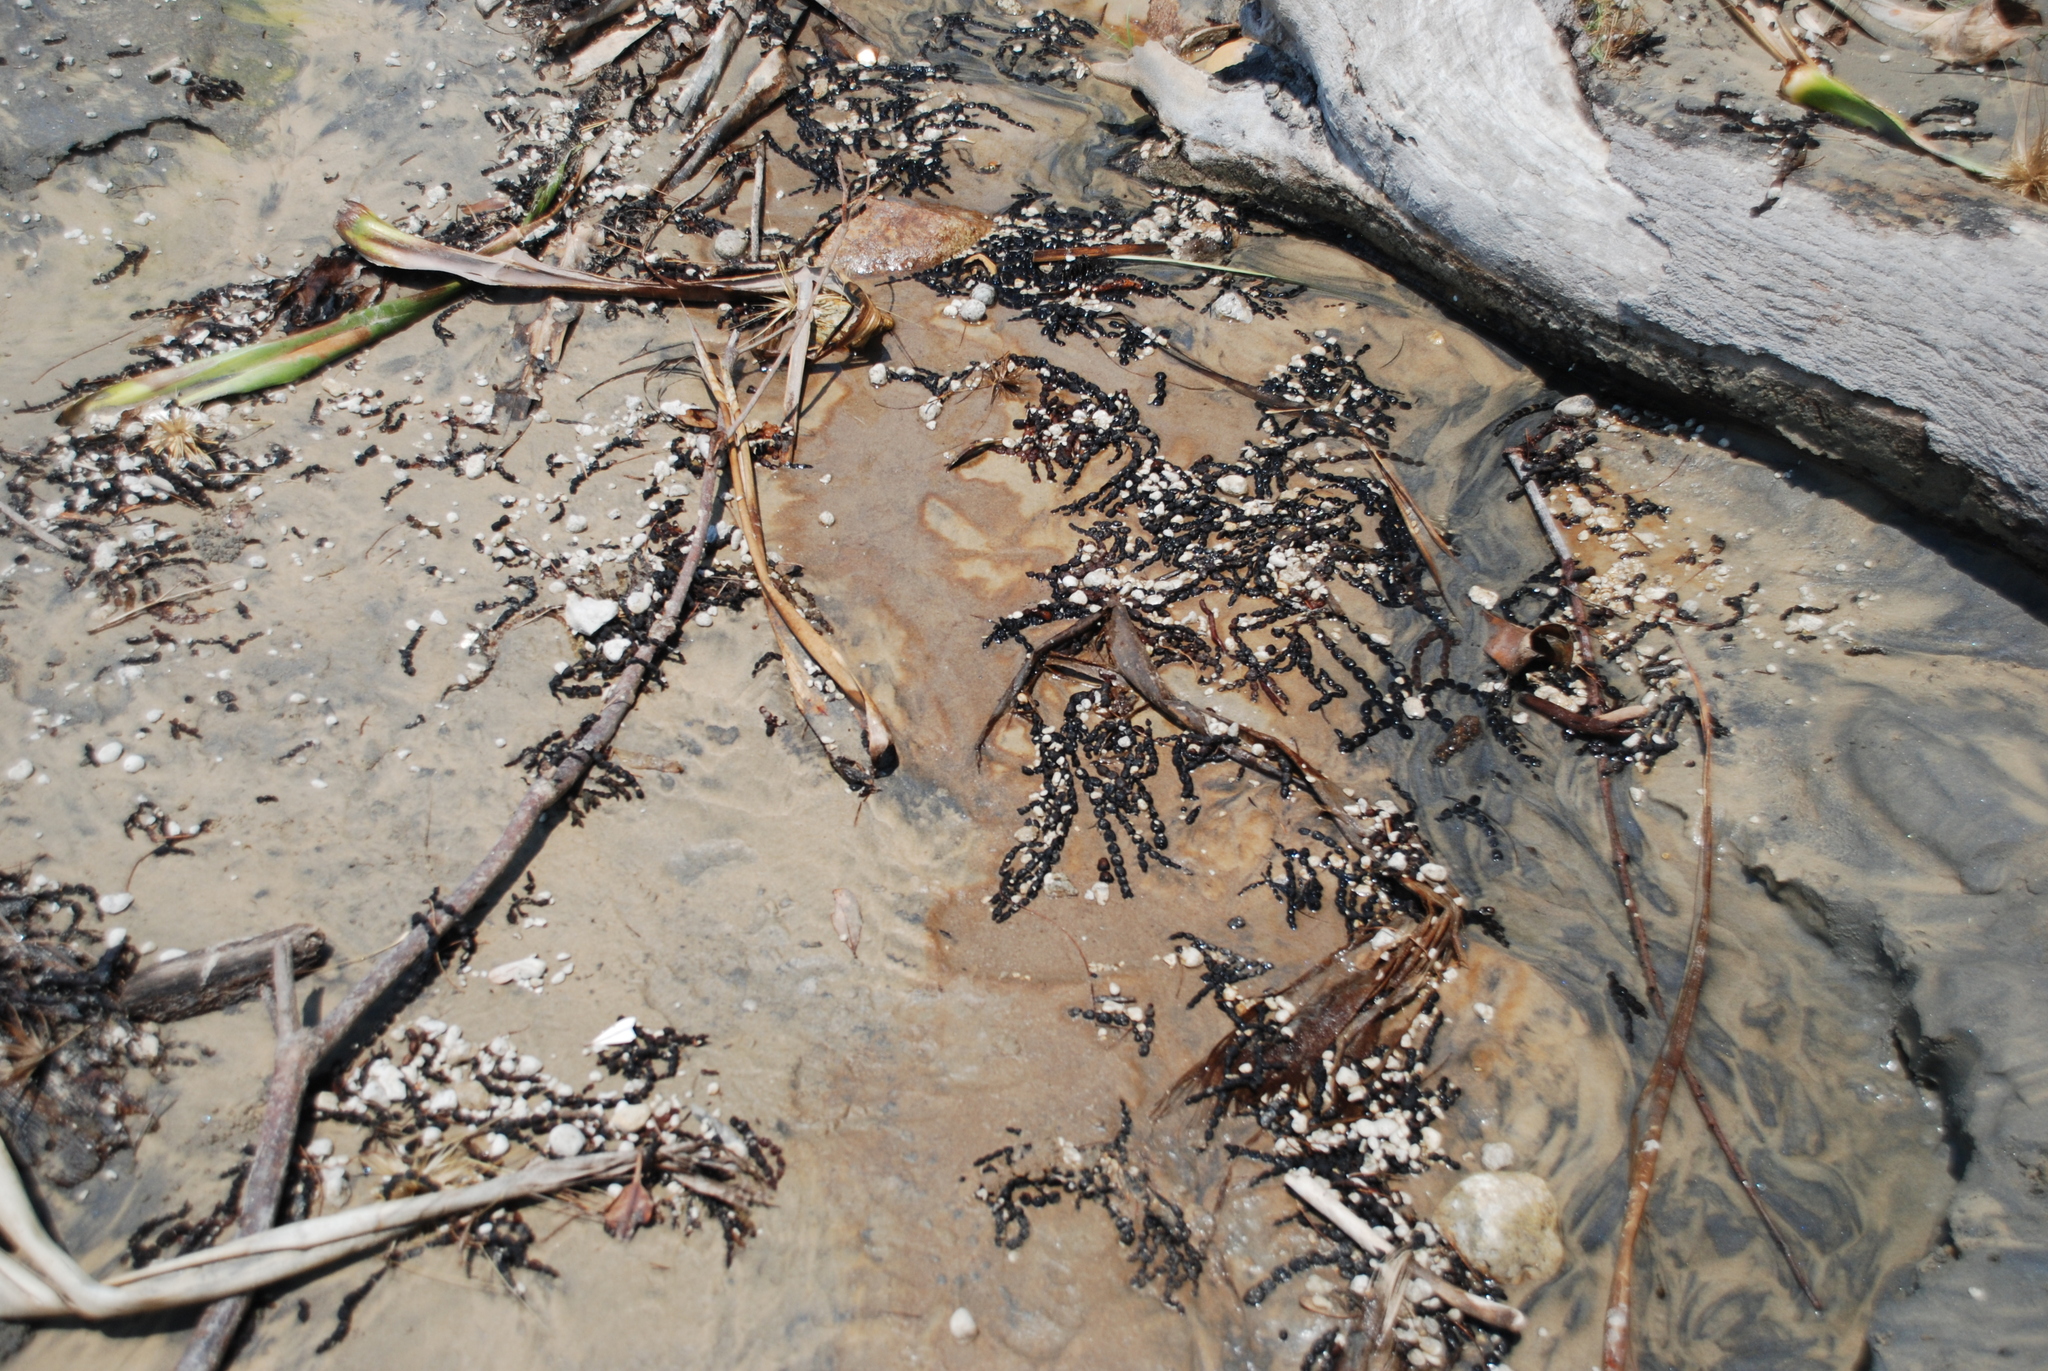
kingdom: Chromista
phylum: Ochrophyta
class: Phaeophyceae
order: Fucales
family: Hormosiraceae
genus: Hormosira
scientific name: Hormosira banksii
